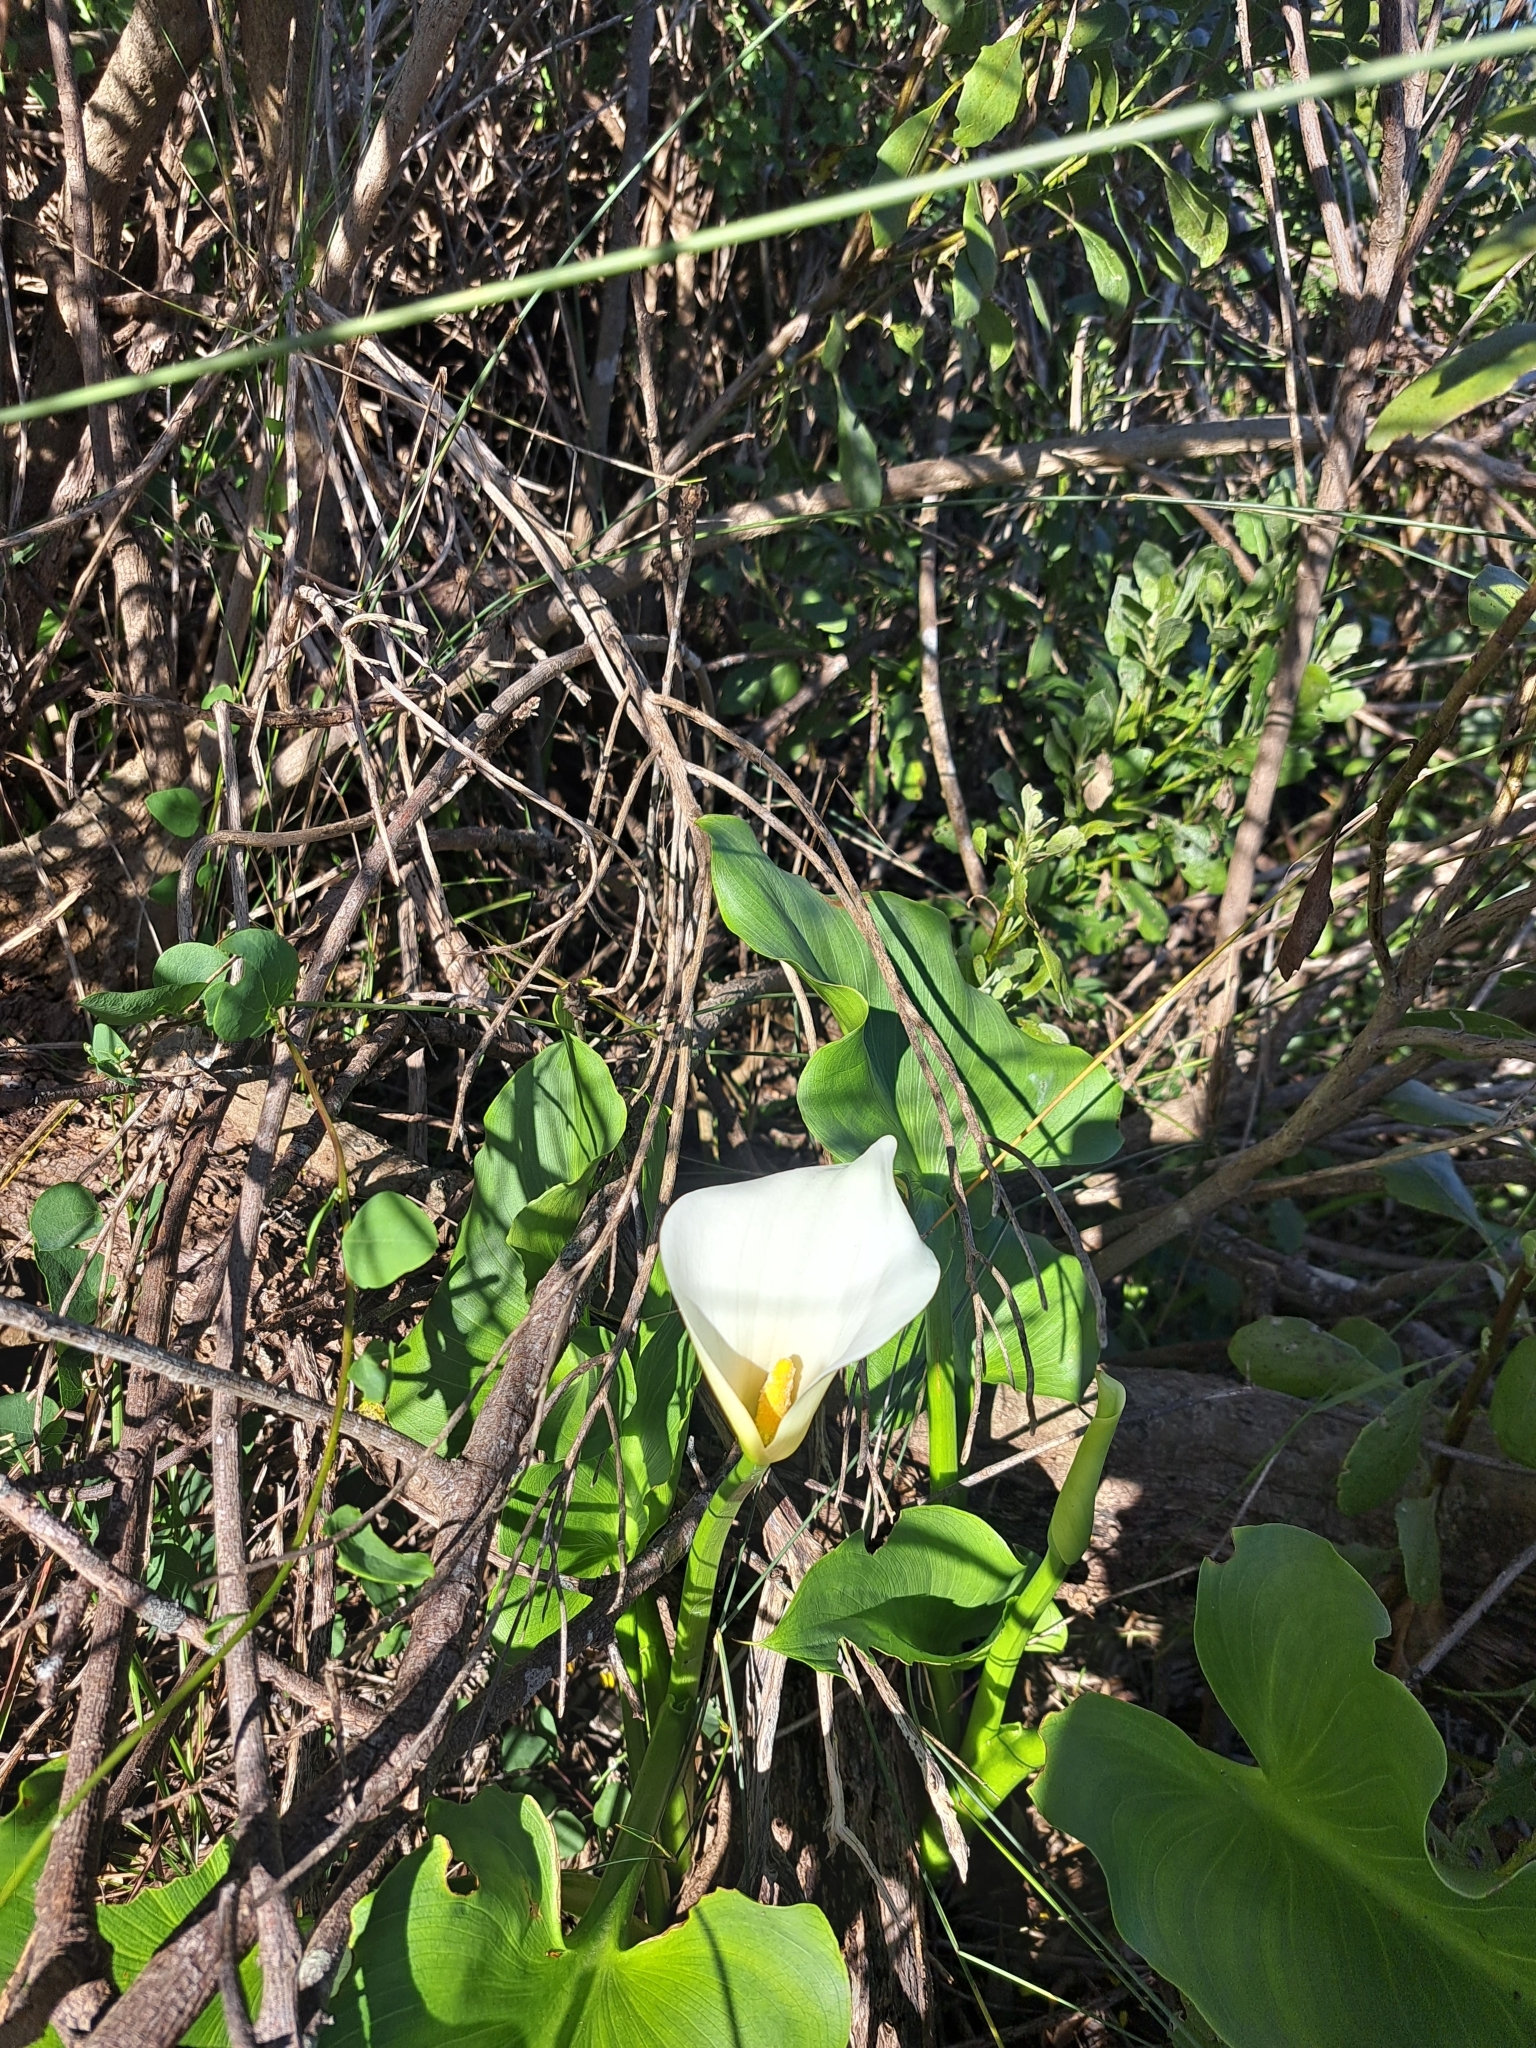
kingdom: Plantae
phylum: Tracheophyta
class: Liliopsida
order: Alismatales
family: Araceae
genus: Zantedeschia
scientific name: Zantedeschia aethiopica
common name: Altar-lily
